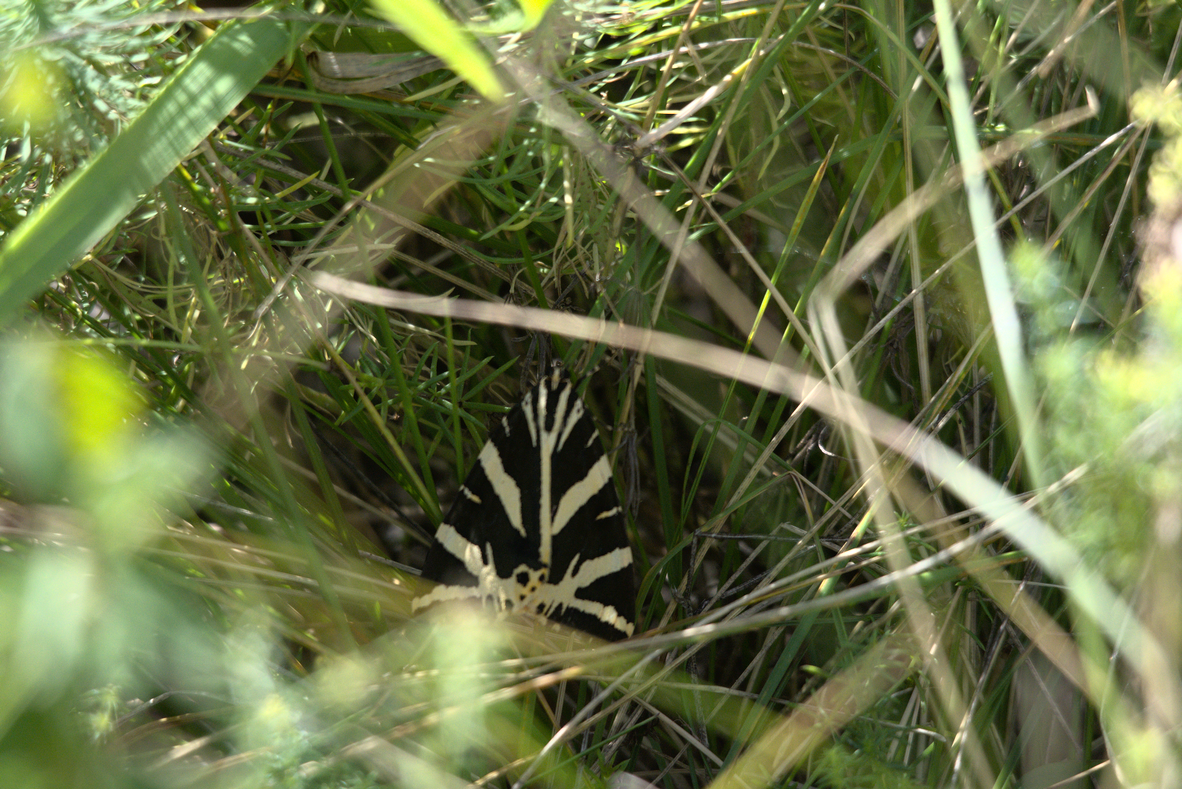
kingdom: Animalia
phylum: Arthropoda
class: Insecta
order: Lepidoptera
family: Erebidae
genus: Euplagia
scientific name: Euplagia quadripunctaria
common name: Jersey tiger
